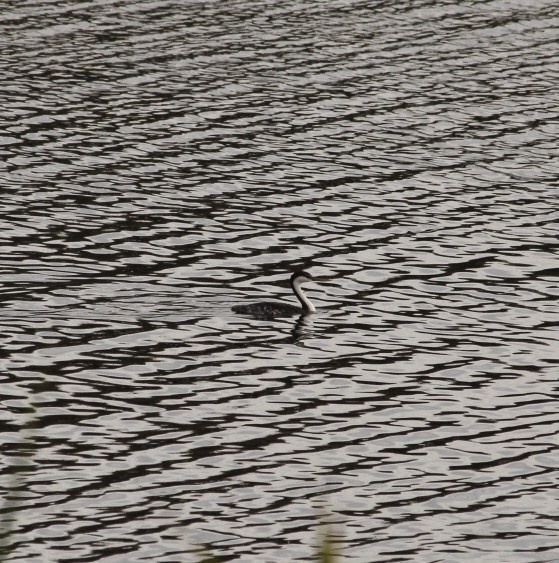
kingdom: Animalia
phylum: Chordata
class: Aves
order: Podicipediformes
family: Podicipedidae
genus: Aechmophorus
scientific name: Aechmophorus occidentalis
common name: Western grebe
